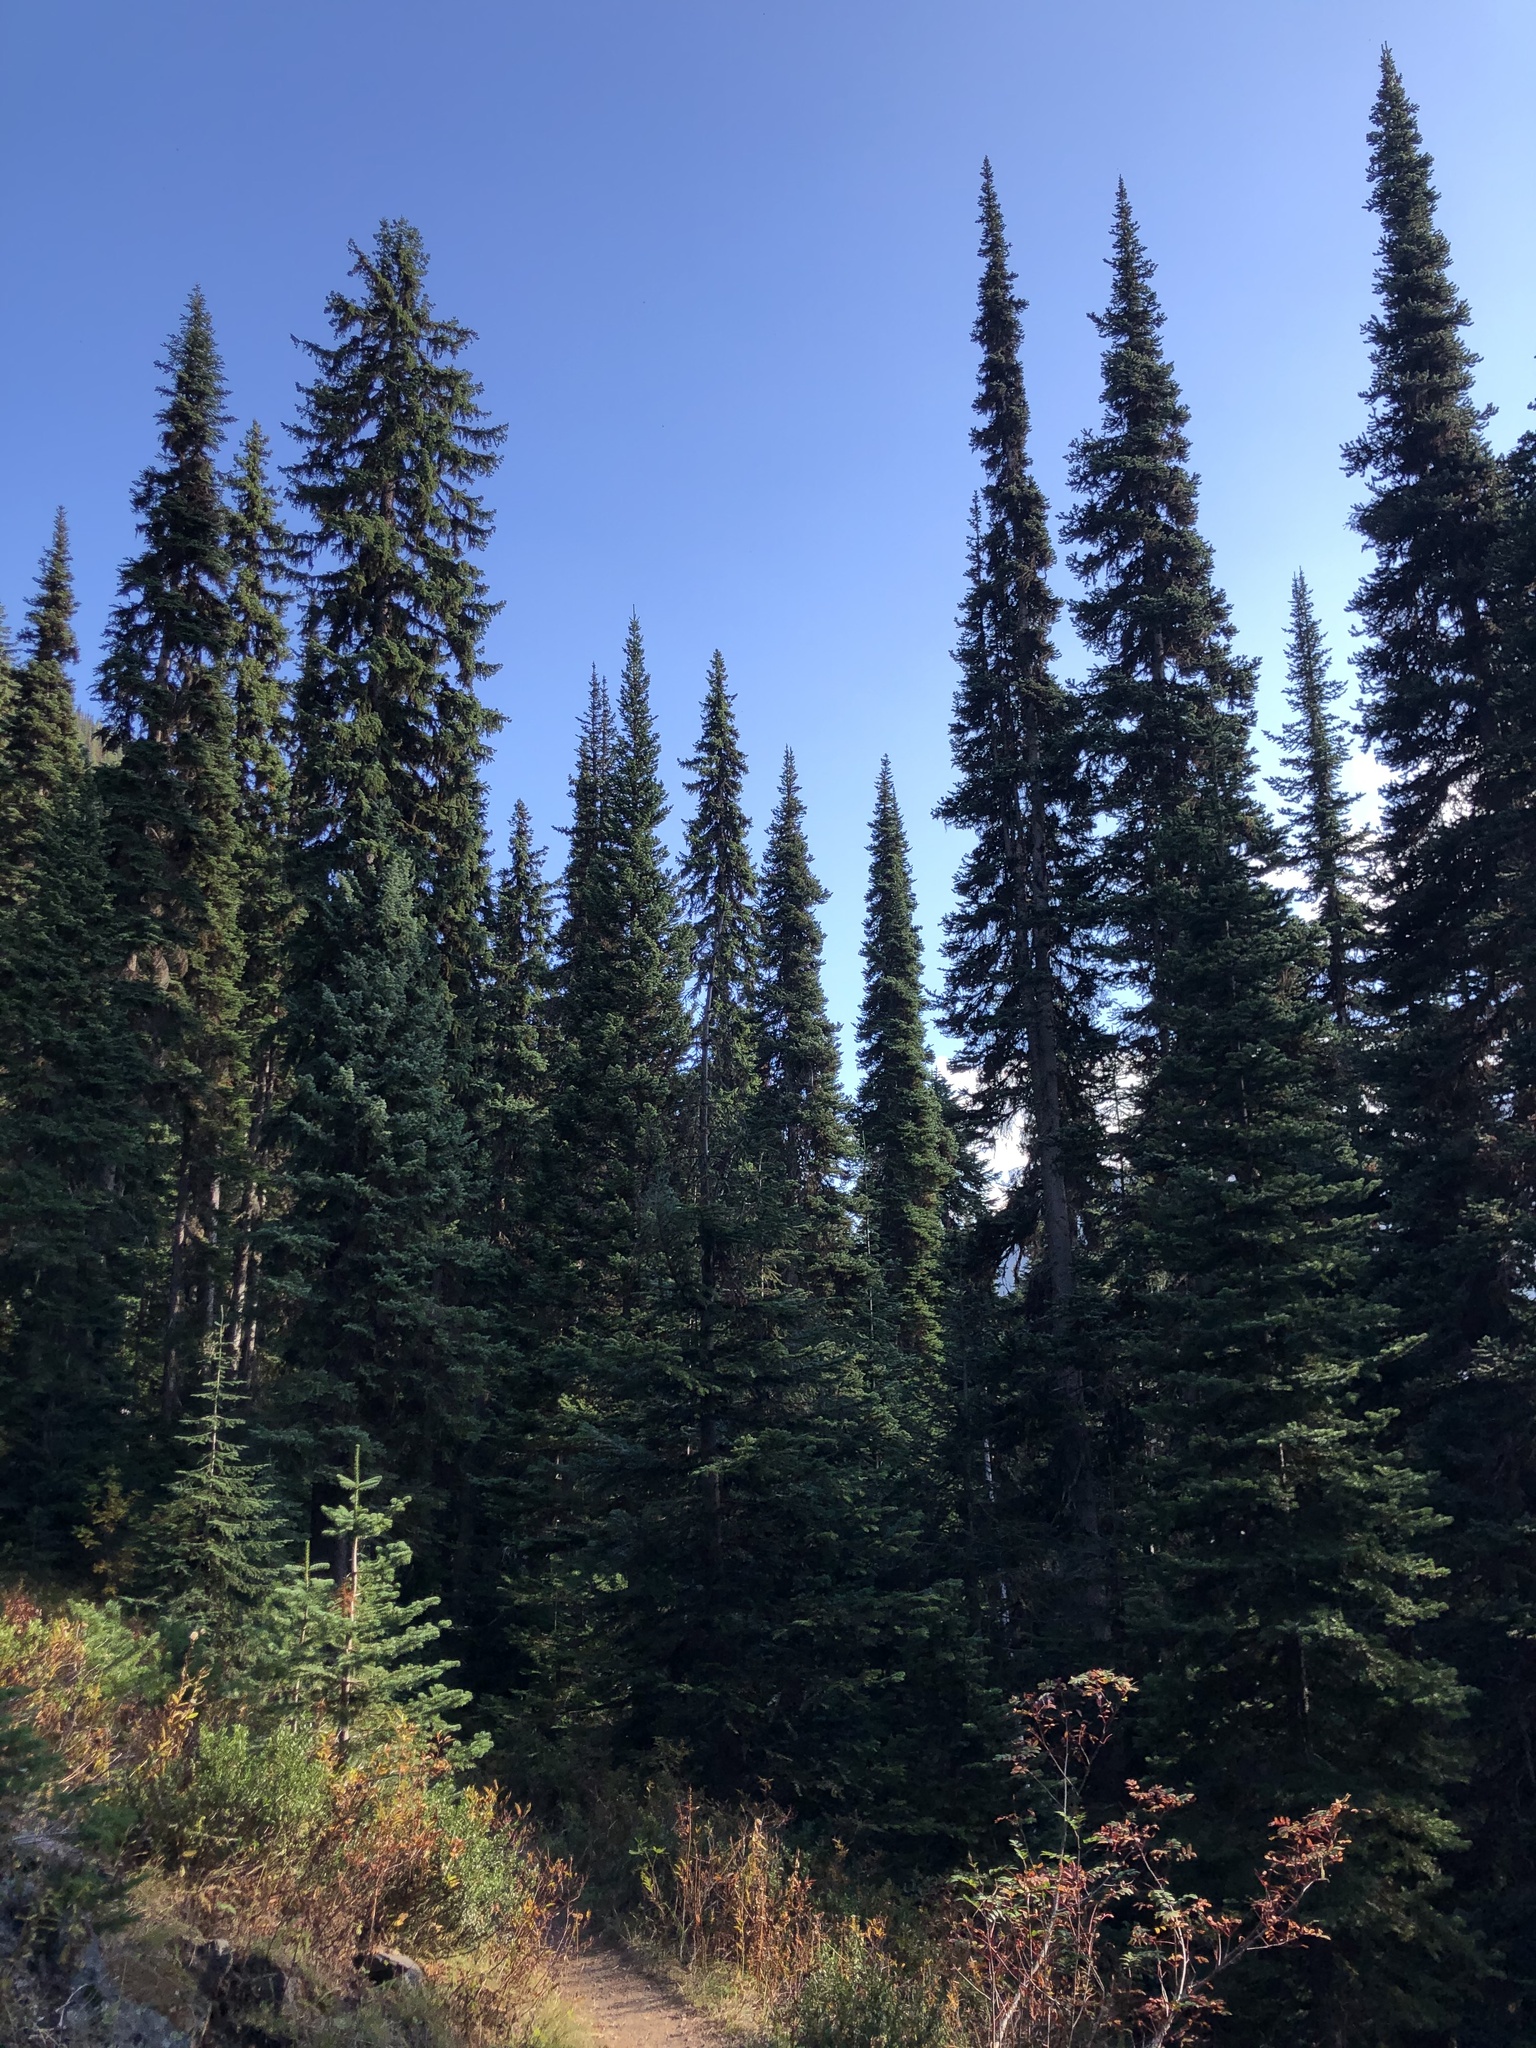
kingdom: Plantae
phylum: Tracheophyta
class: Pinopsida
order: Pinales
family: Pinaceae
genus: Abies
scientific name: Abies lasiocarpa
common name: Subalpine fir
